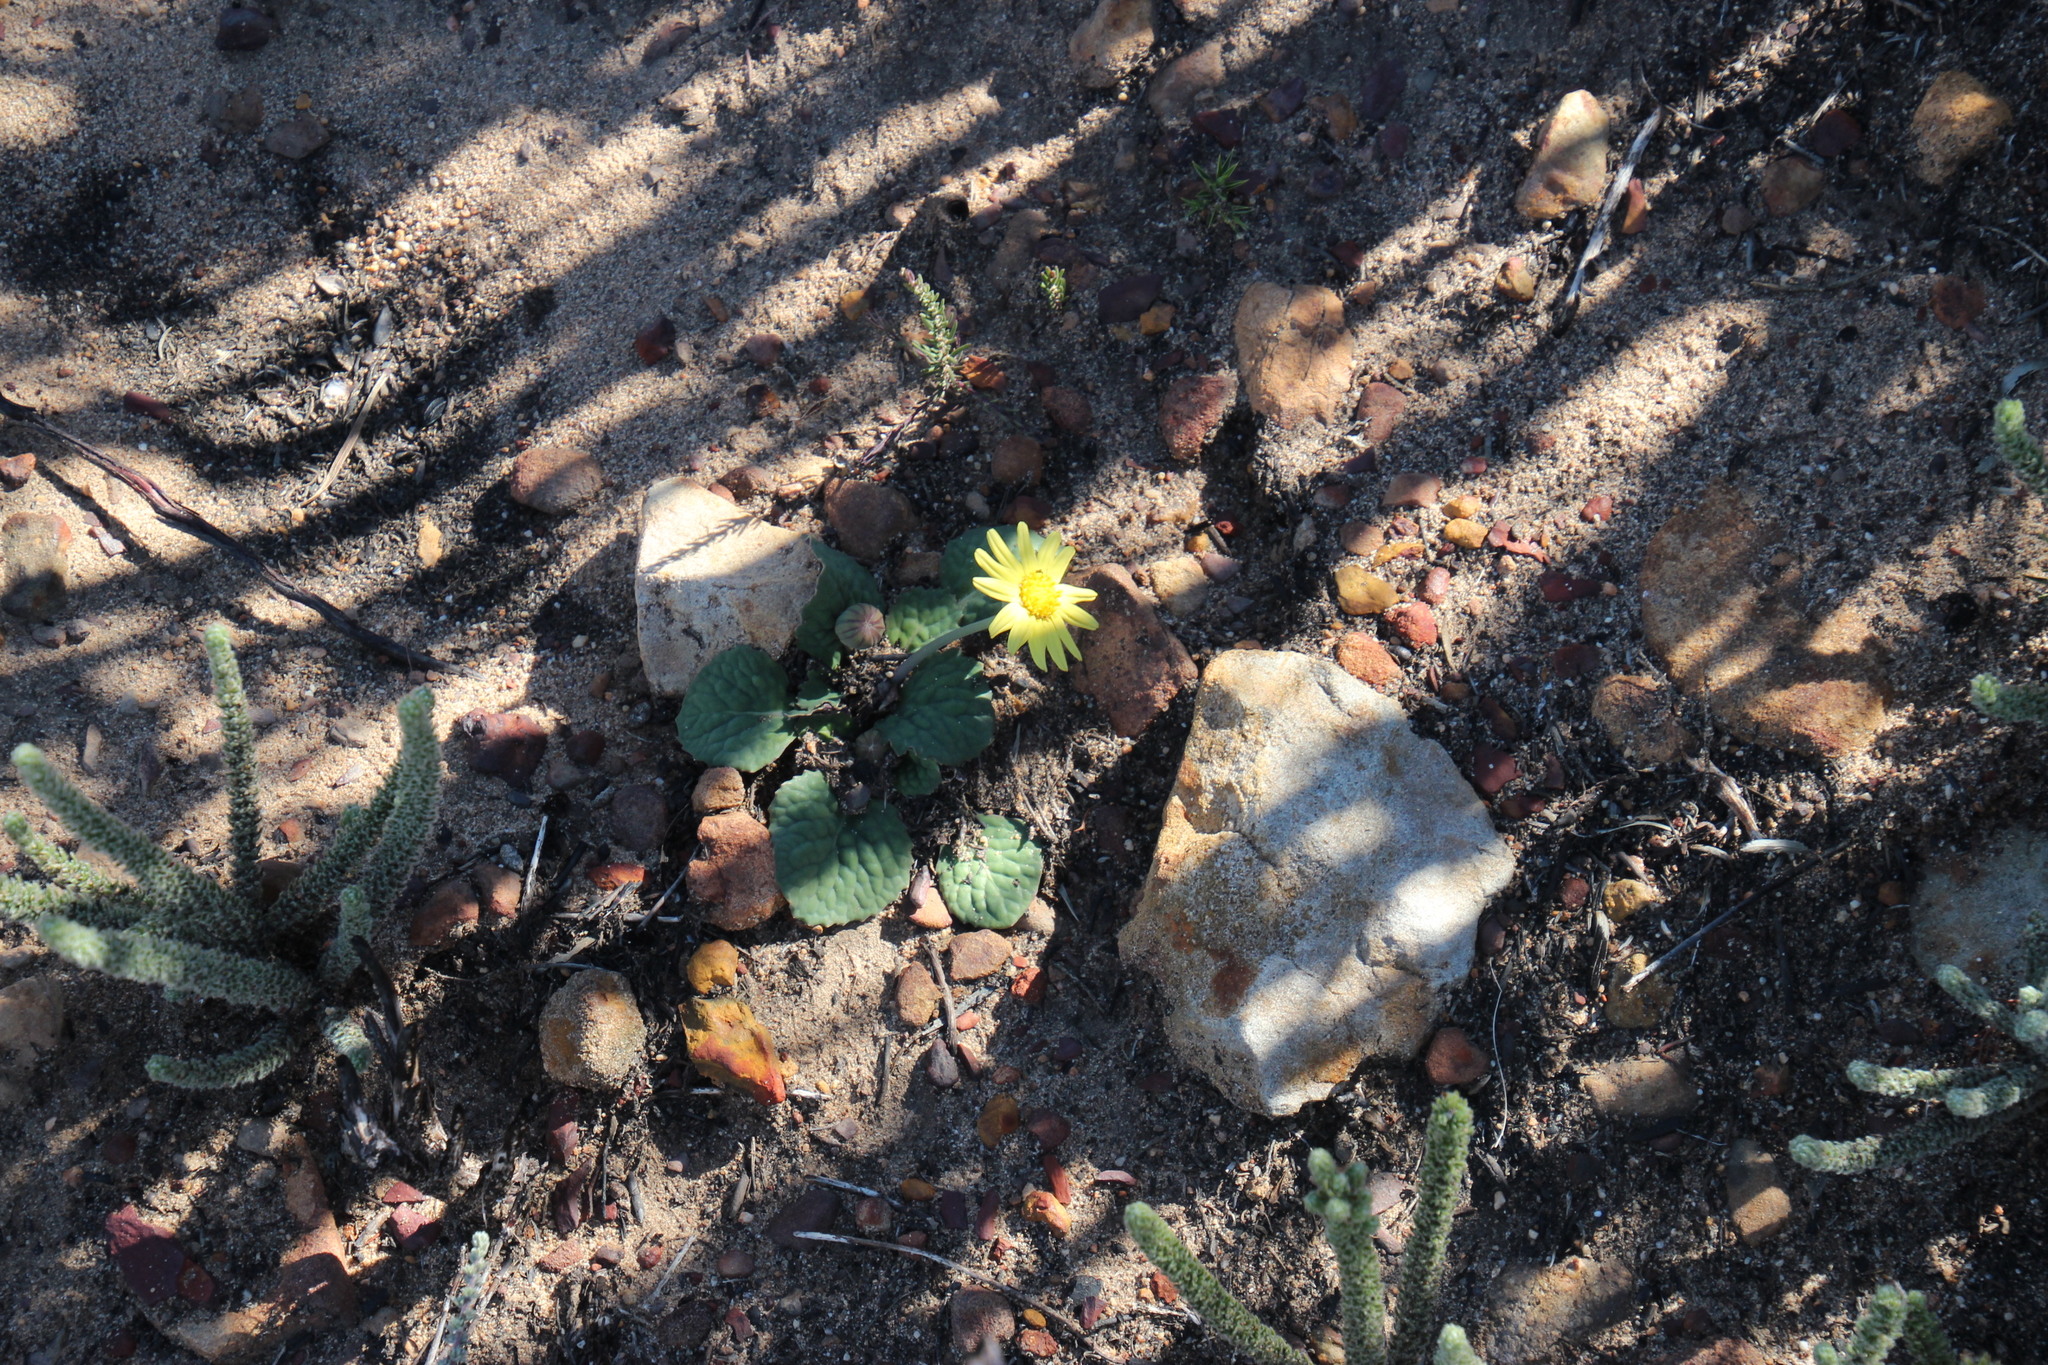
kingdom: Plantae
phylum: Tracheophyta
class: Magnoliopsida
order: Asterales
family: Asteraceae
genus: Othonna
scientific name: Othonna oleracea
